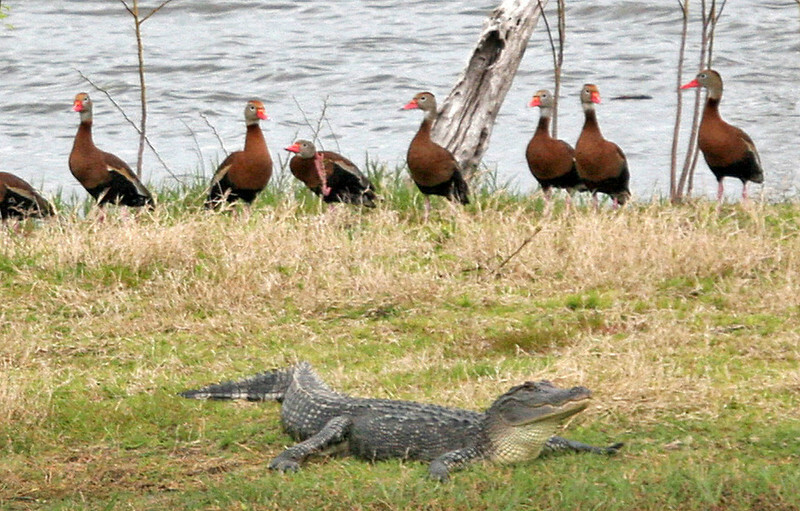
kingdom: Animalia
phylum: Chordata
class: Crocodylia
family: Alligatoridae
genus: Alligator
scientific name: Alligator mississippiensis
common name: American alligator
